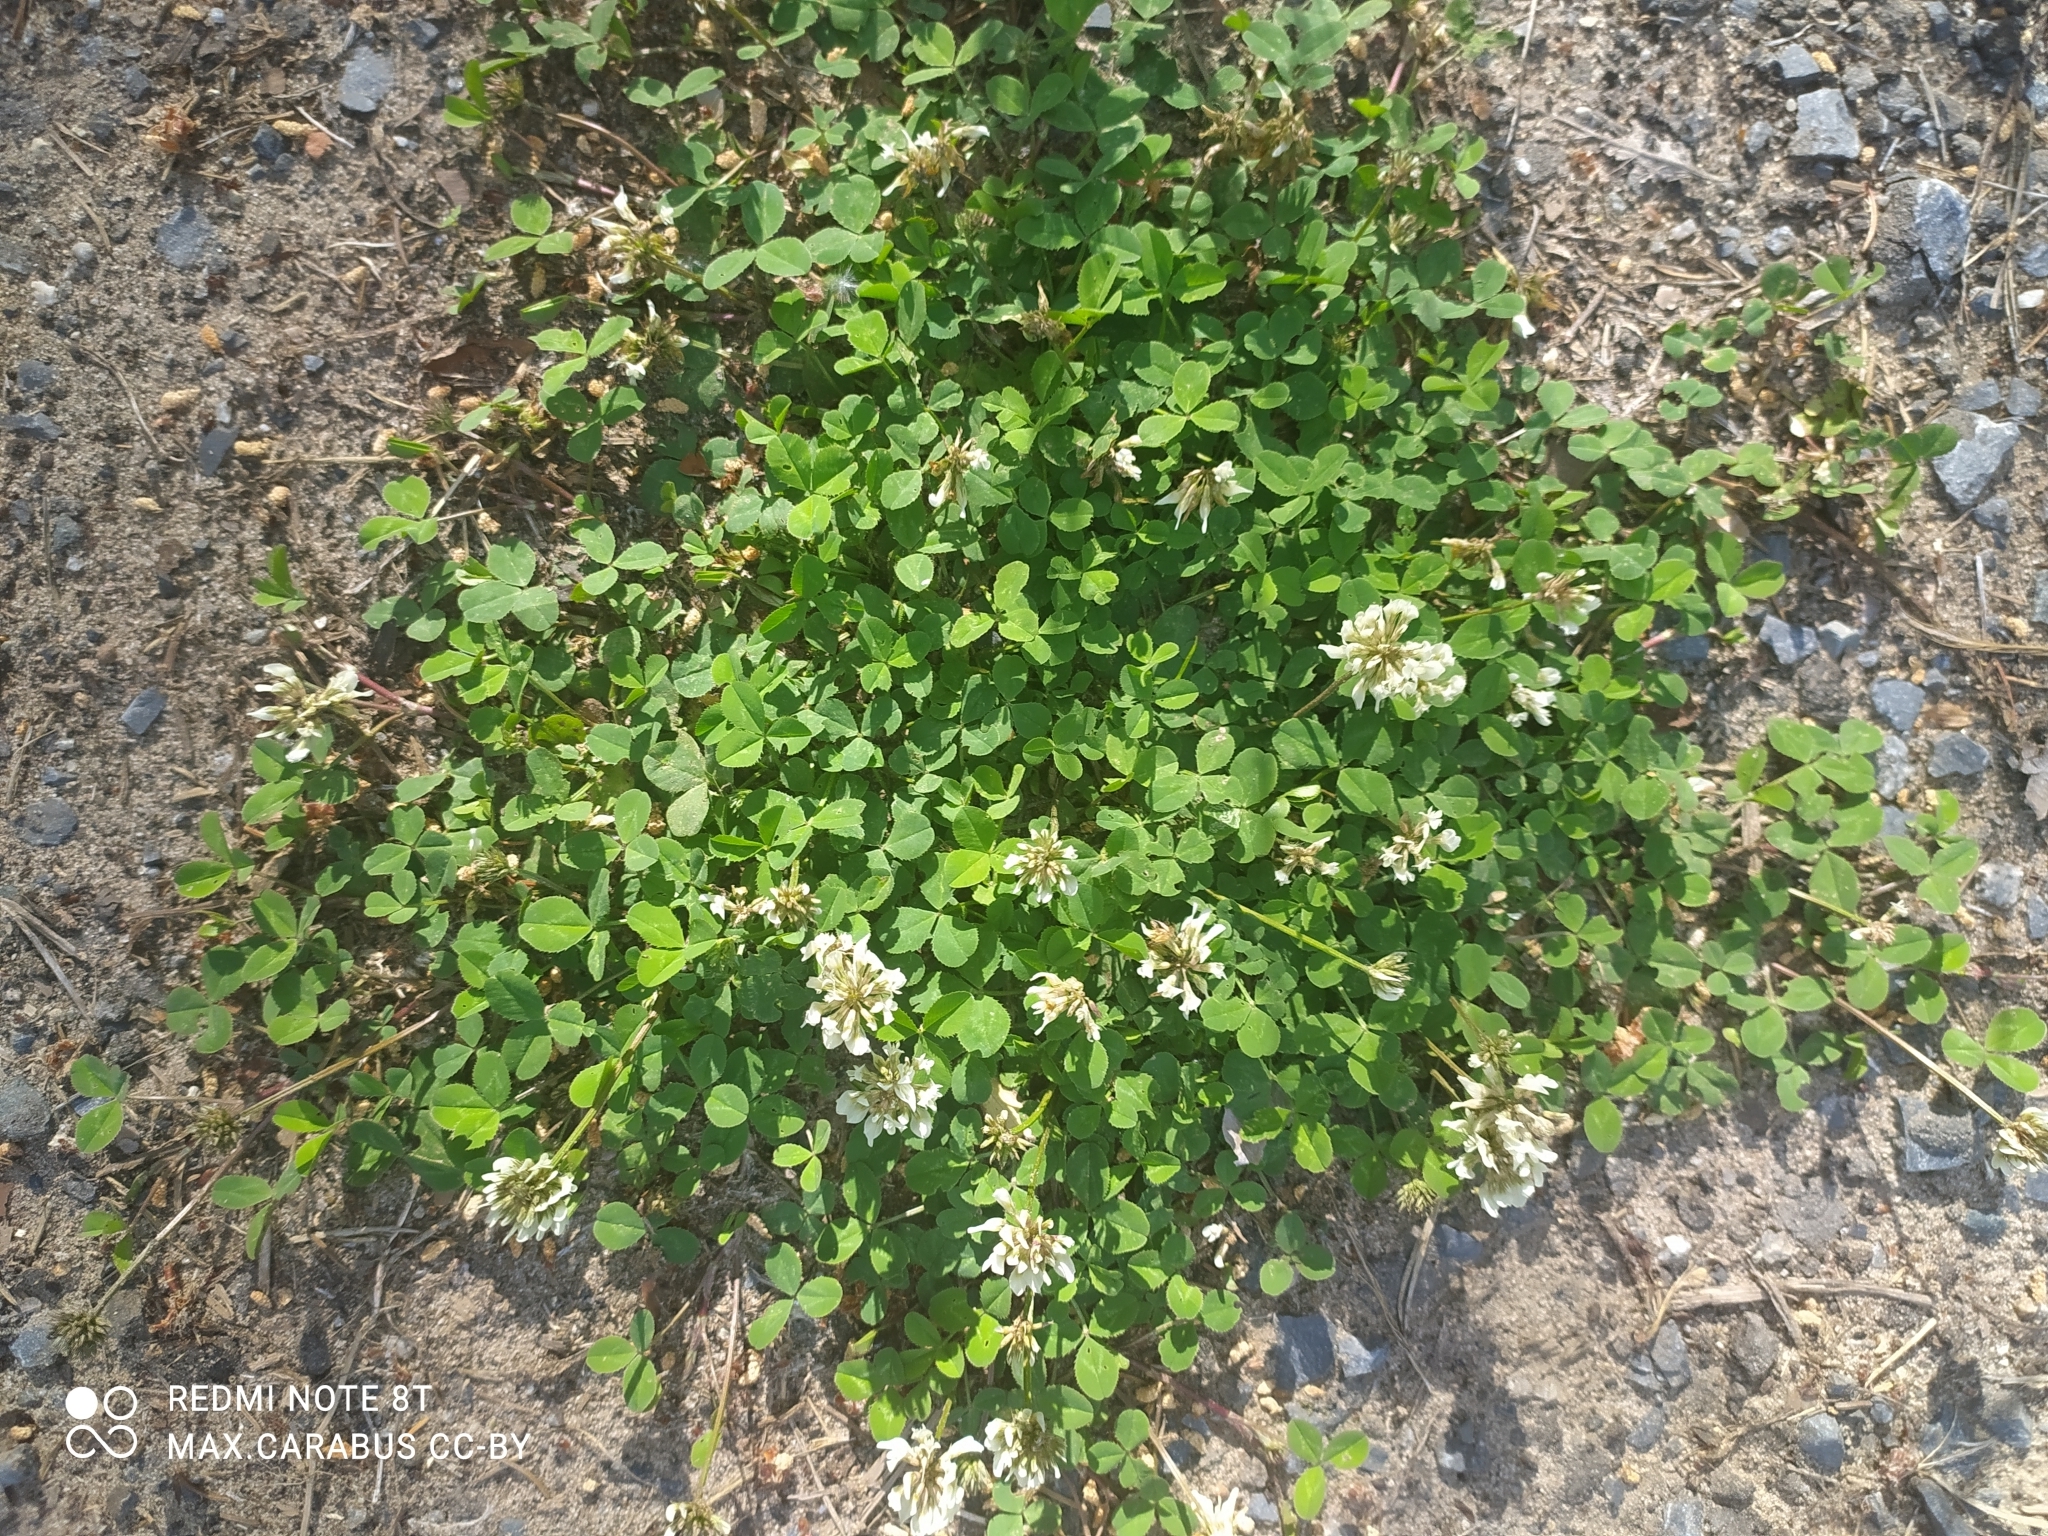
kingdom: Plantae
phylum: Tracheophyta
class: Magnoliopsida
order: Fabales
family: Fabaceae
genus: Trifolium
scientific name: Trifolium repens
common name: White clover
